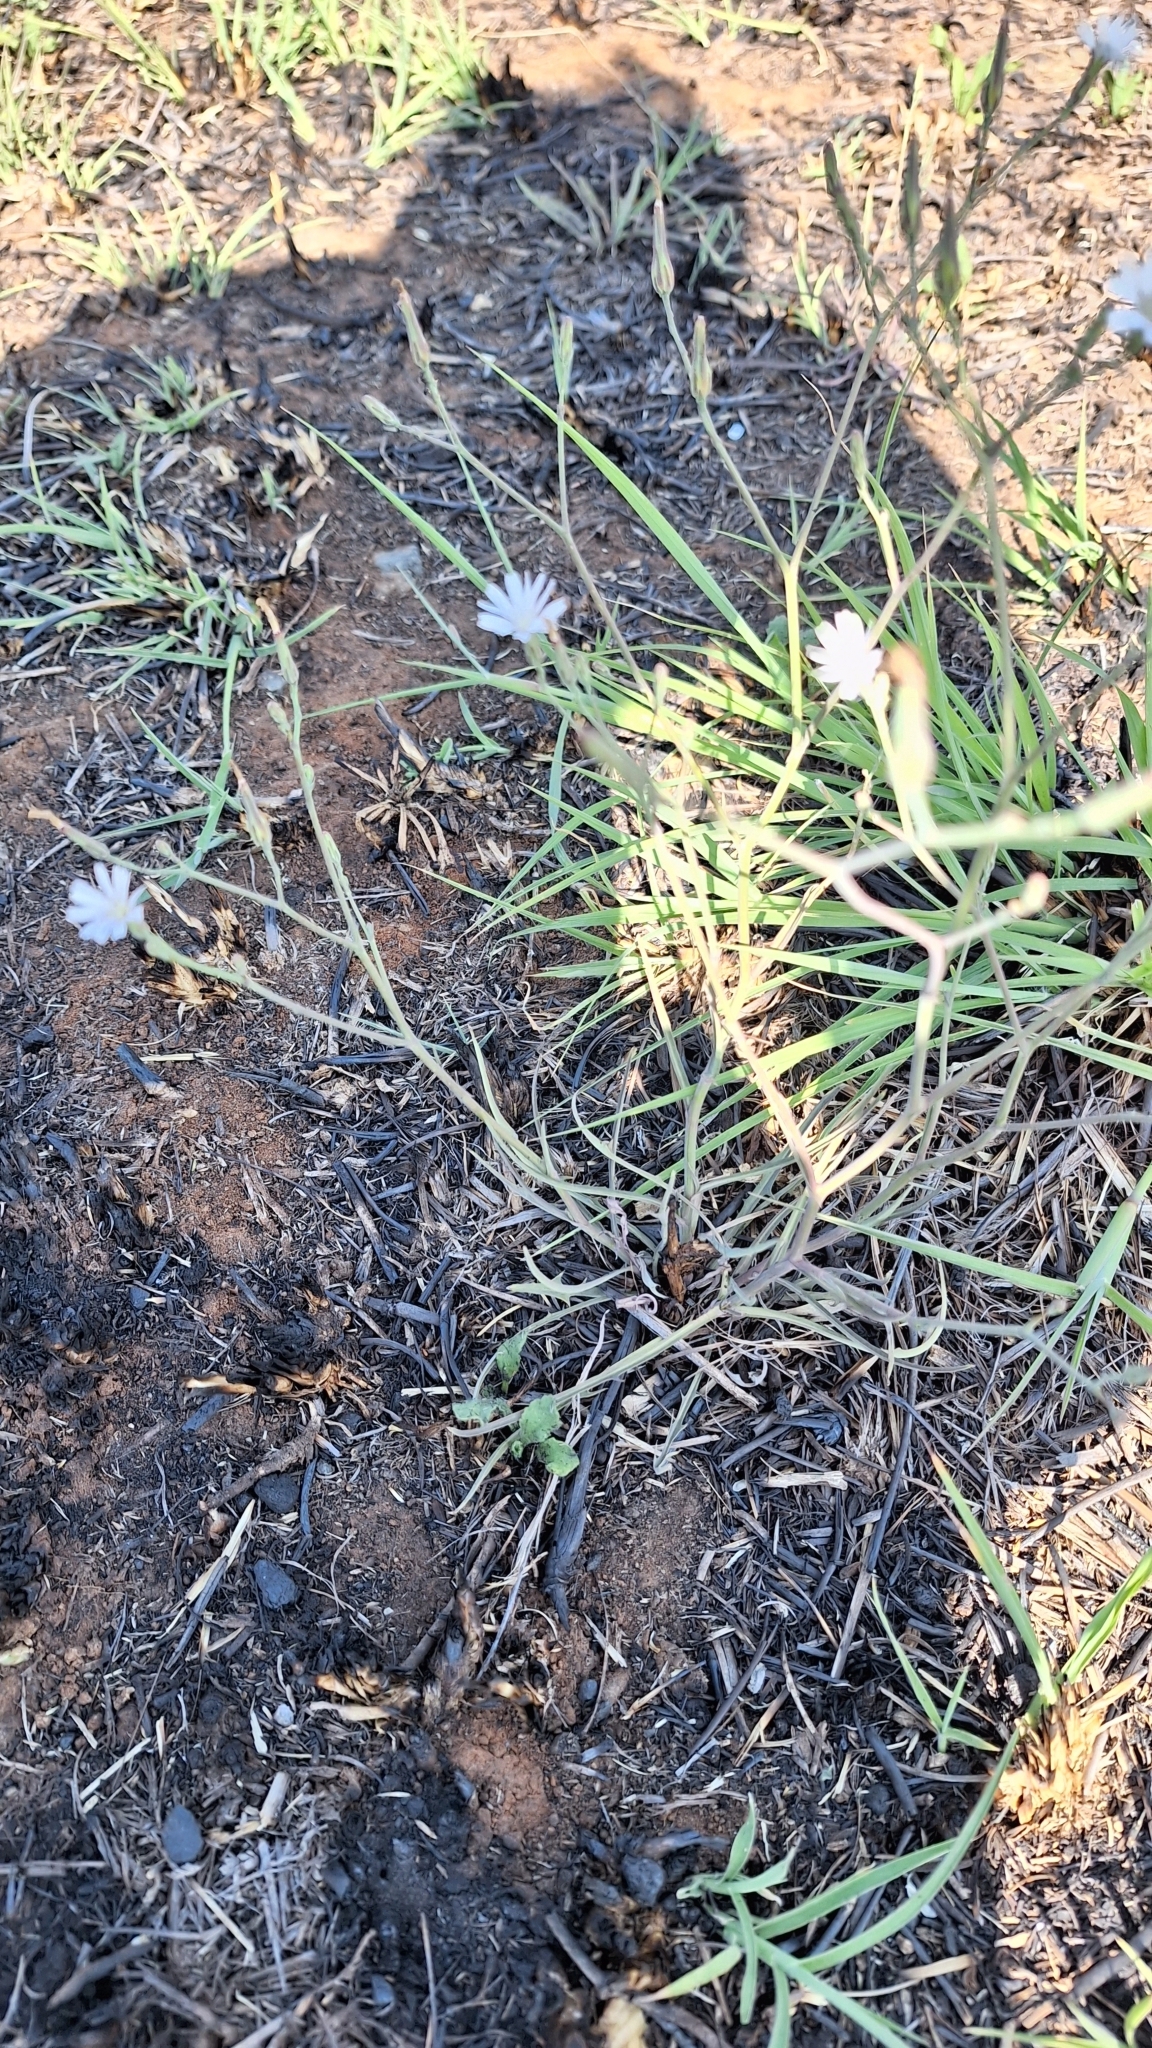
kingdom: Plantae
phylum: Tracheophyta
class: Magnoliopsida
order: Asterales
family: Asteraceae
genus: Lactuca
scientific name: Lactuca inermis
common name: Wild lettuce
